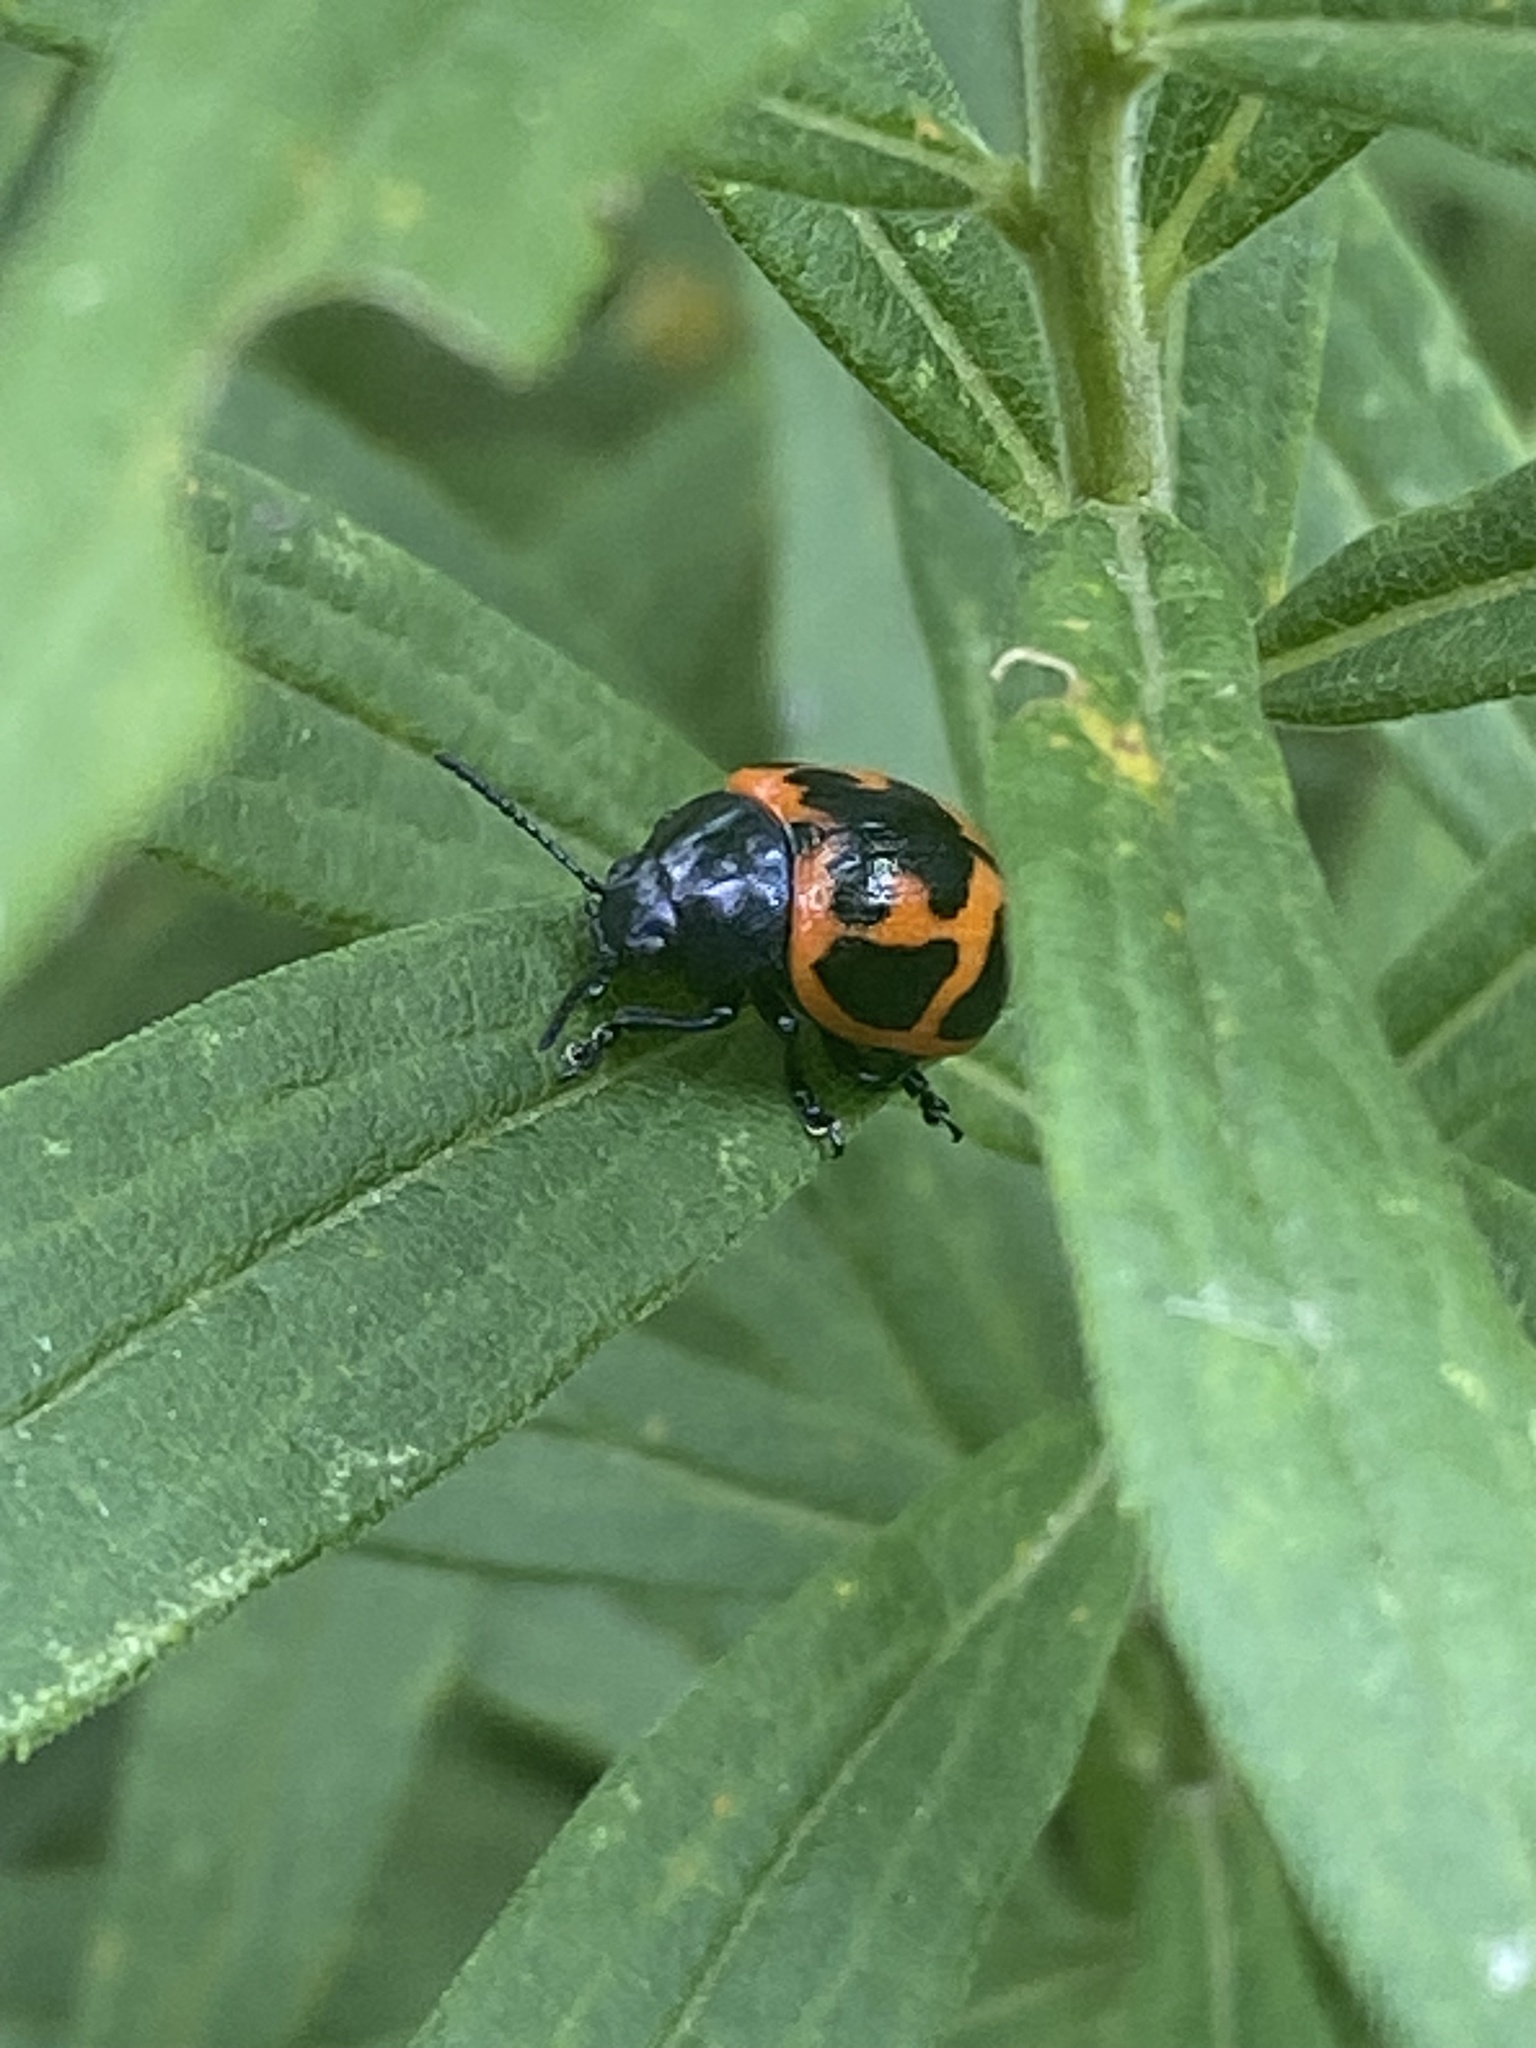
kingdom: Animalia
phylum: Arthropoda
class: Insecta
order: Coleoptera
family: Chrysomelidae
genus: Labidomera
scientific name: Labidomera clivicollis
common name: Swamp milkweed leaf beetle
